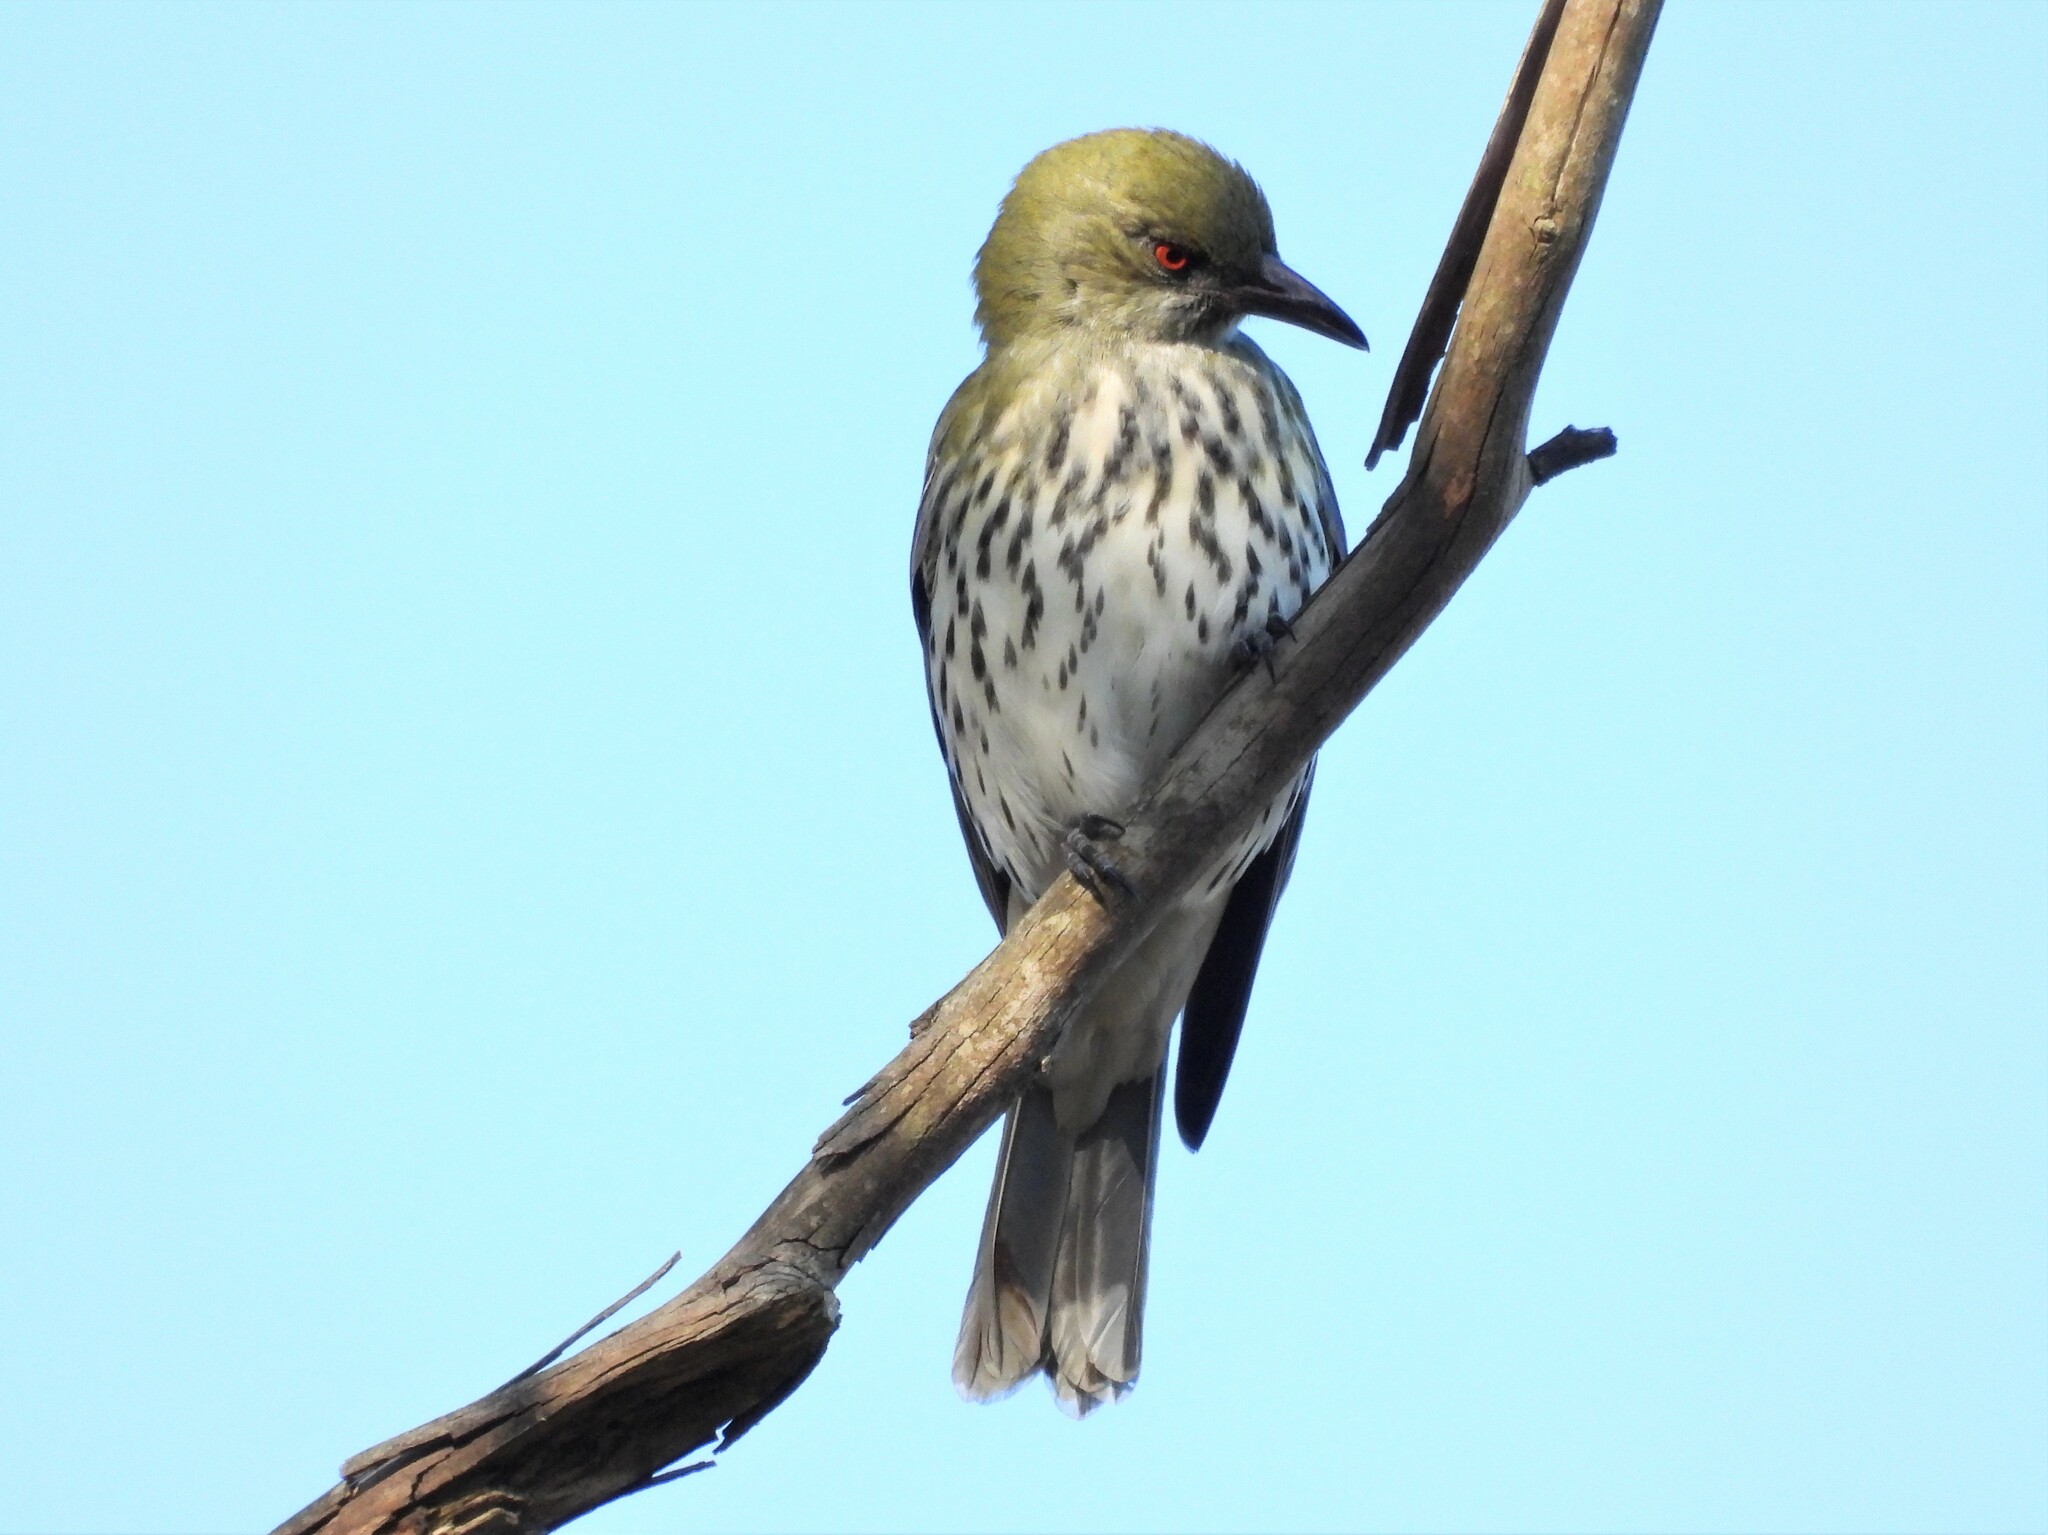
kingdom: Animalia
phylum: Chordata
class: Aves
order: Passeriformes
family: Oriolidae
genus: Oriolus
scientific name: Oriolus sagittatus
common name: Olive-backed oriole
